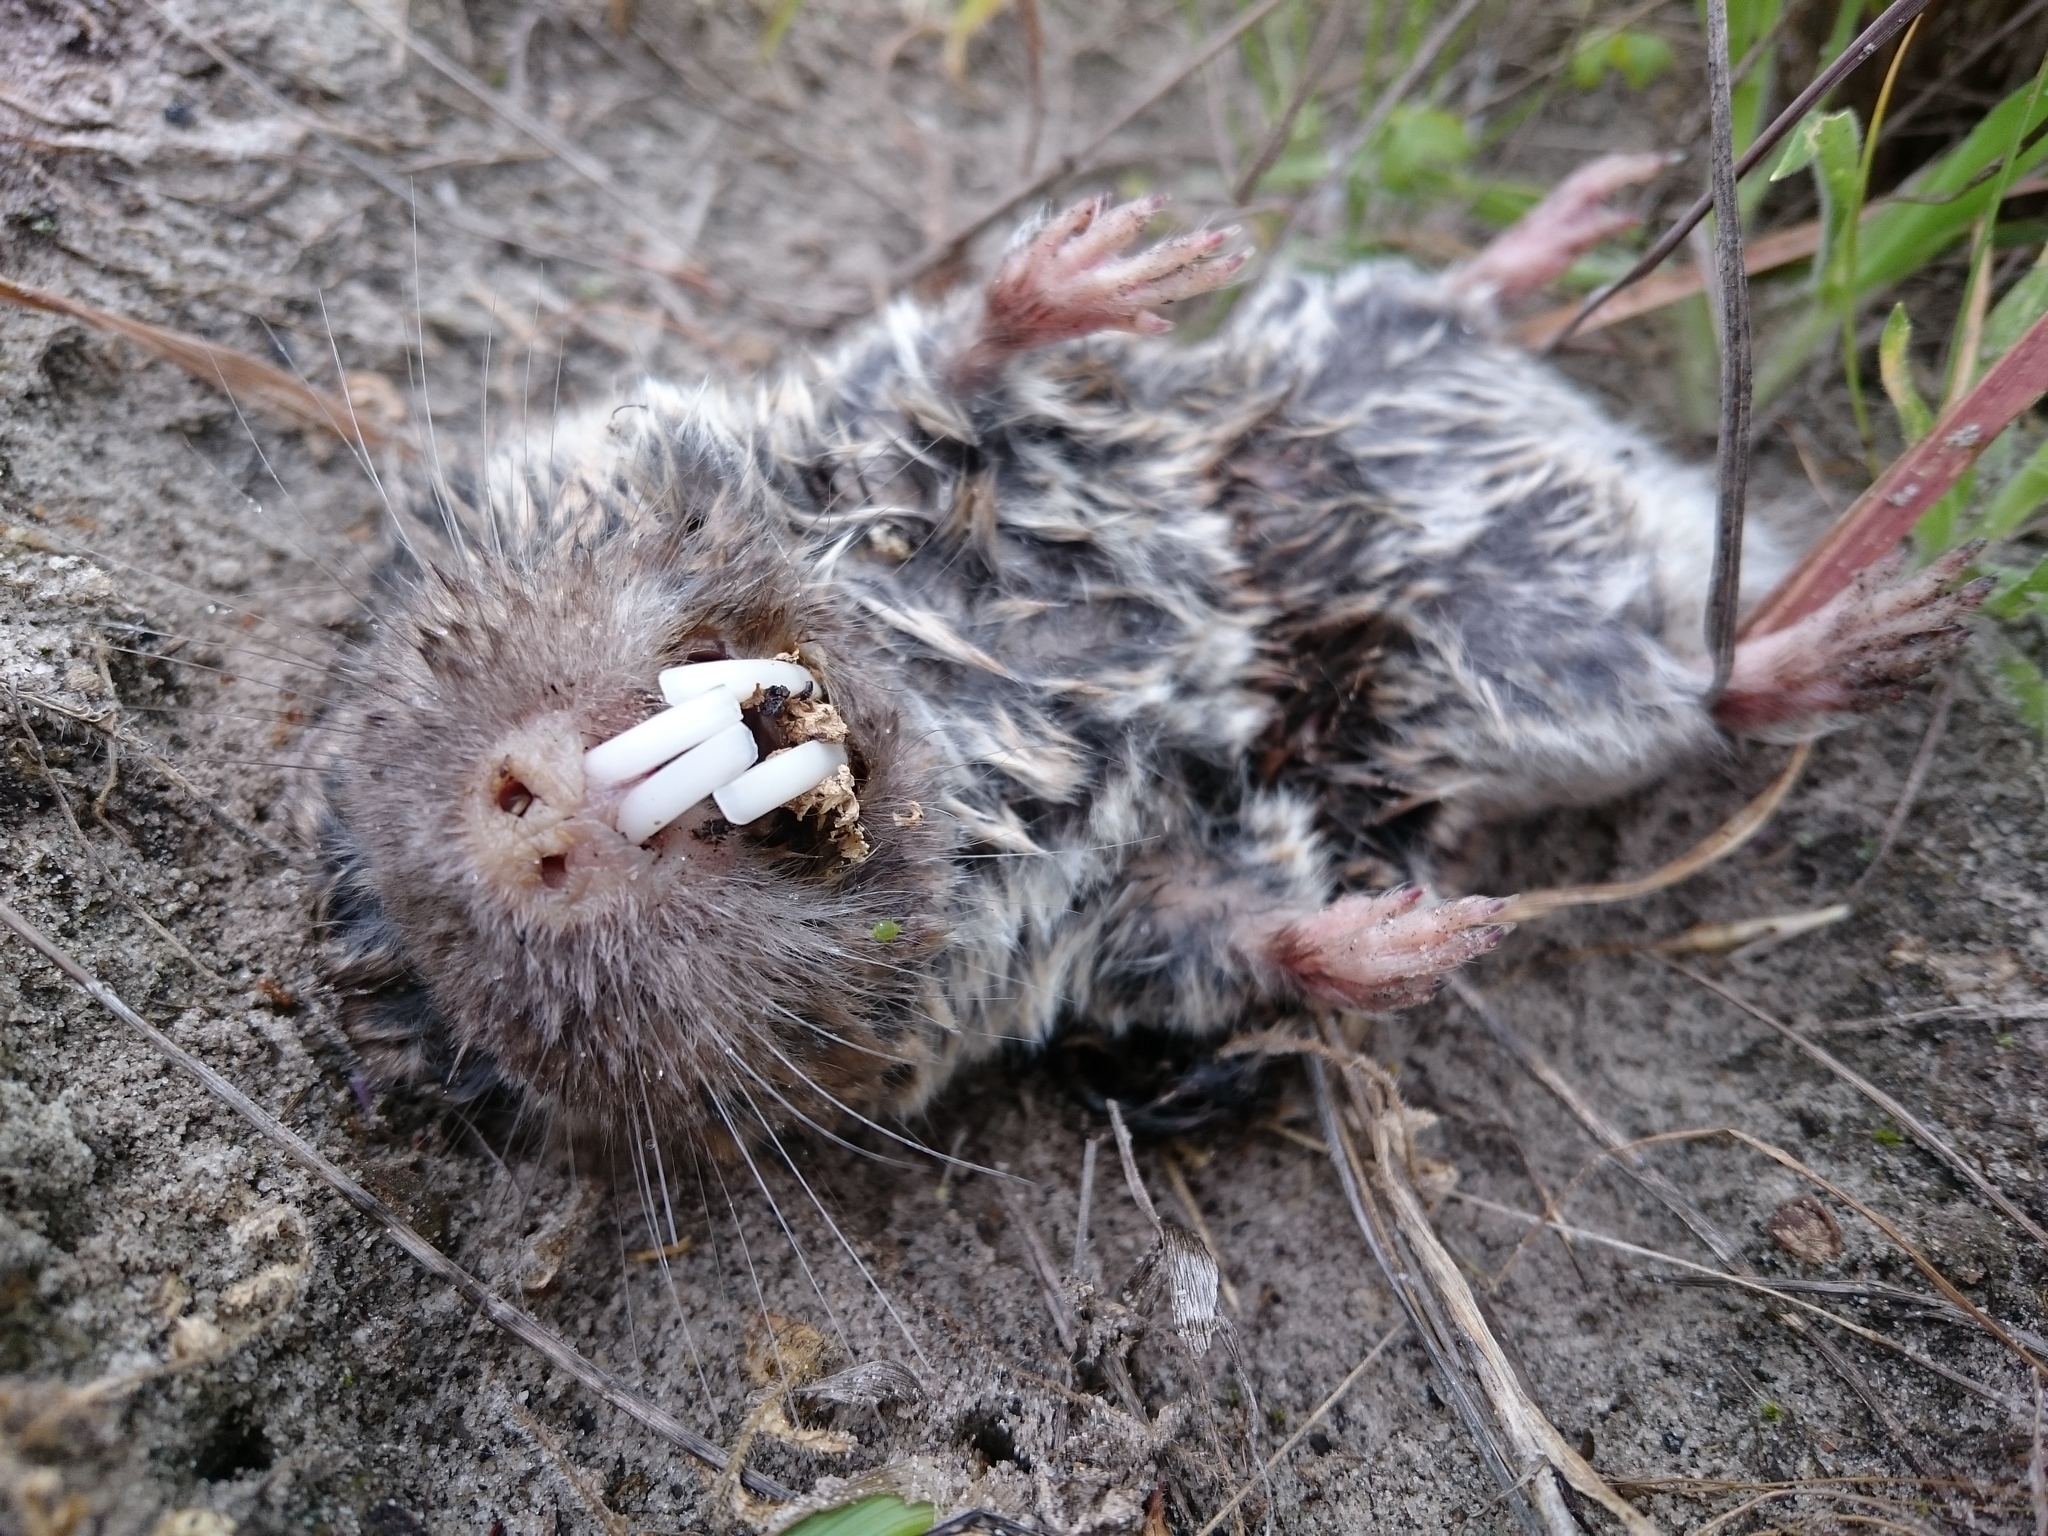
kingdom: Animalia
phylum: Chordata
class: Mammalia
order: Rodentia
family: Bathyergidae
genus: Cryptomys
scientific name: Cryptomys hottentotus
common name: Southern african mole-rat
